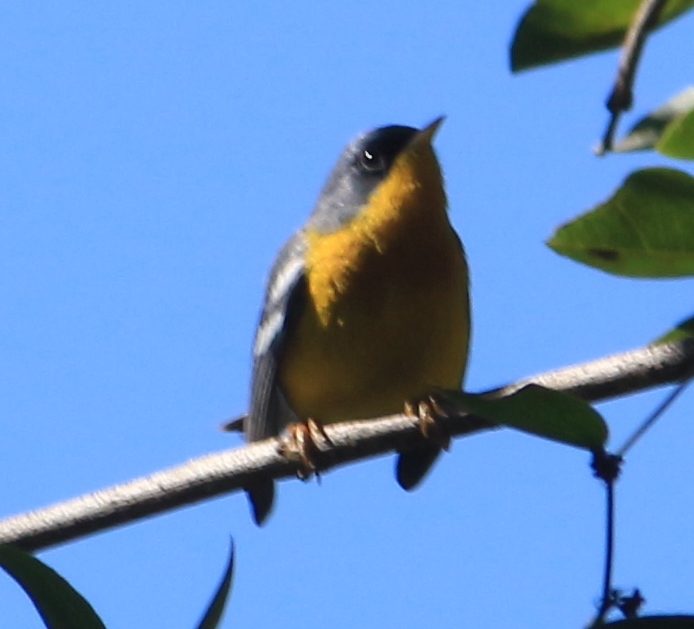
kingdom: Animalia
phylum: Chordata
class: Aves
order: Passeriformes
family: Parulidae
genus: Setophaga
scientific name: Setophaga pitiayumi
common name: Tropical parula
